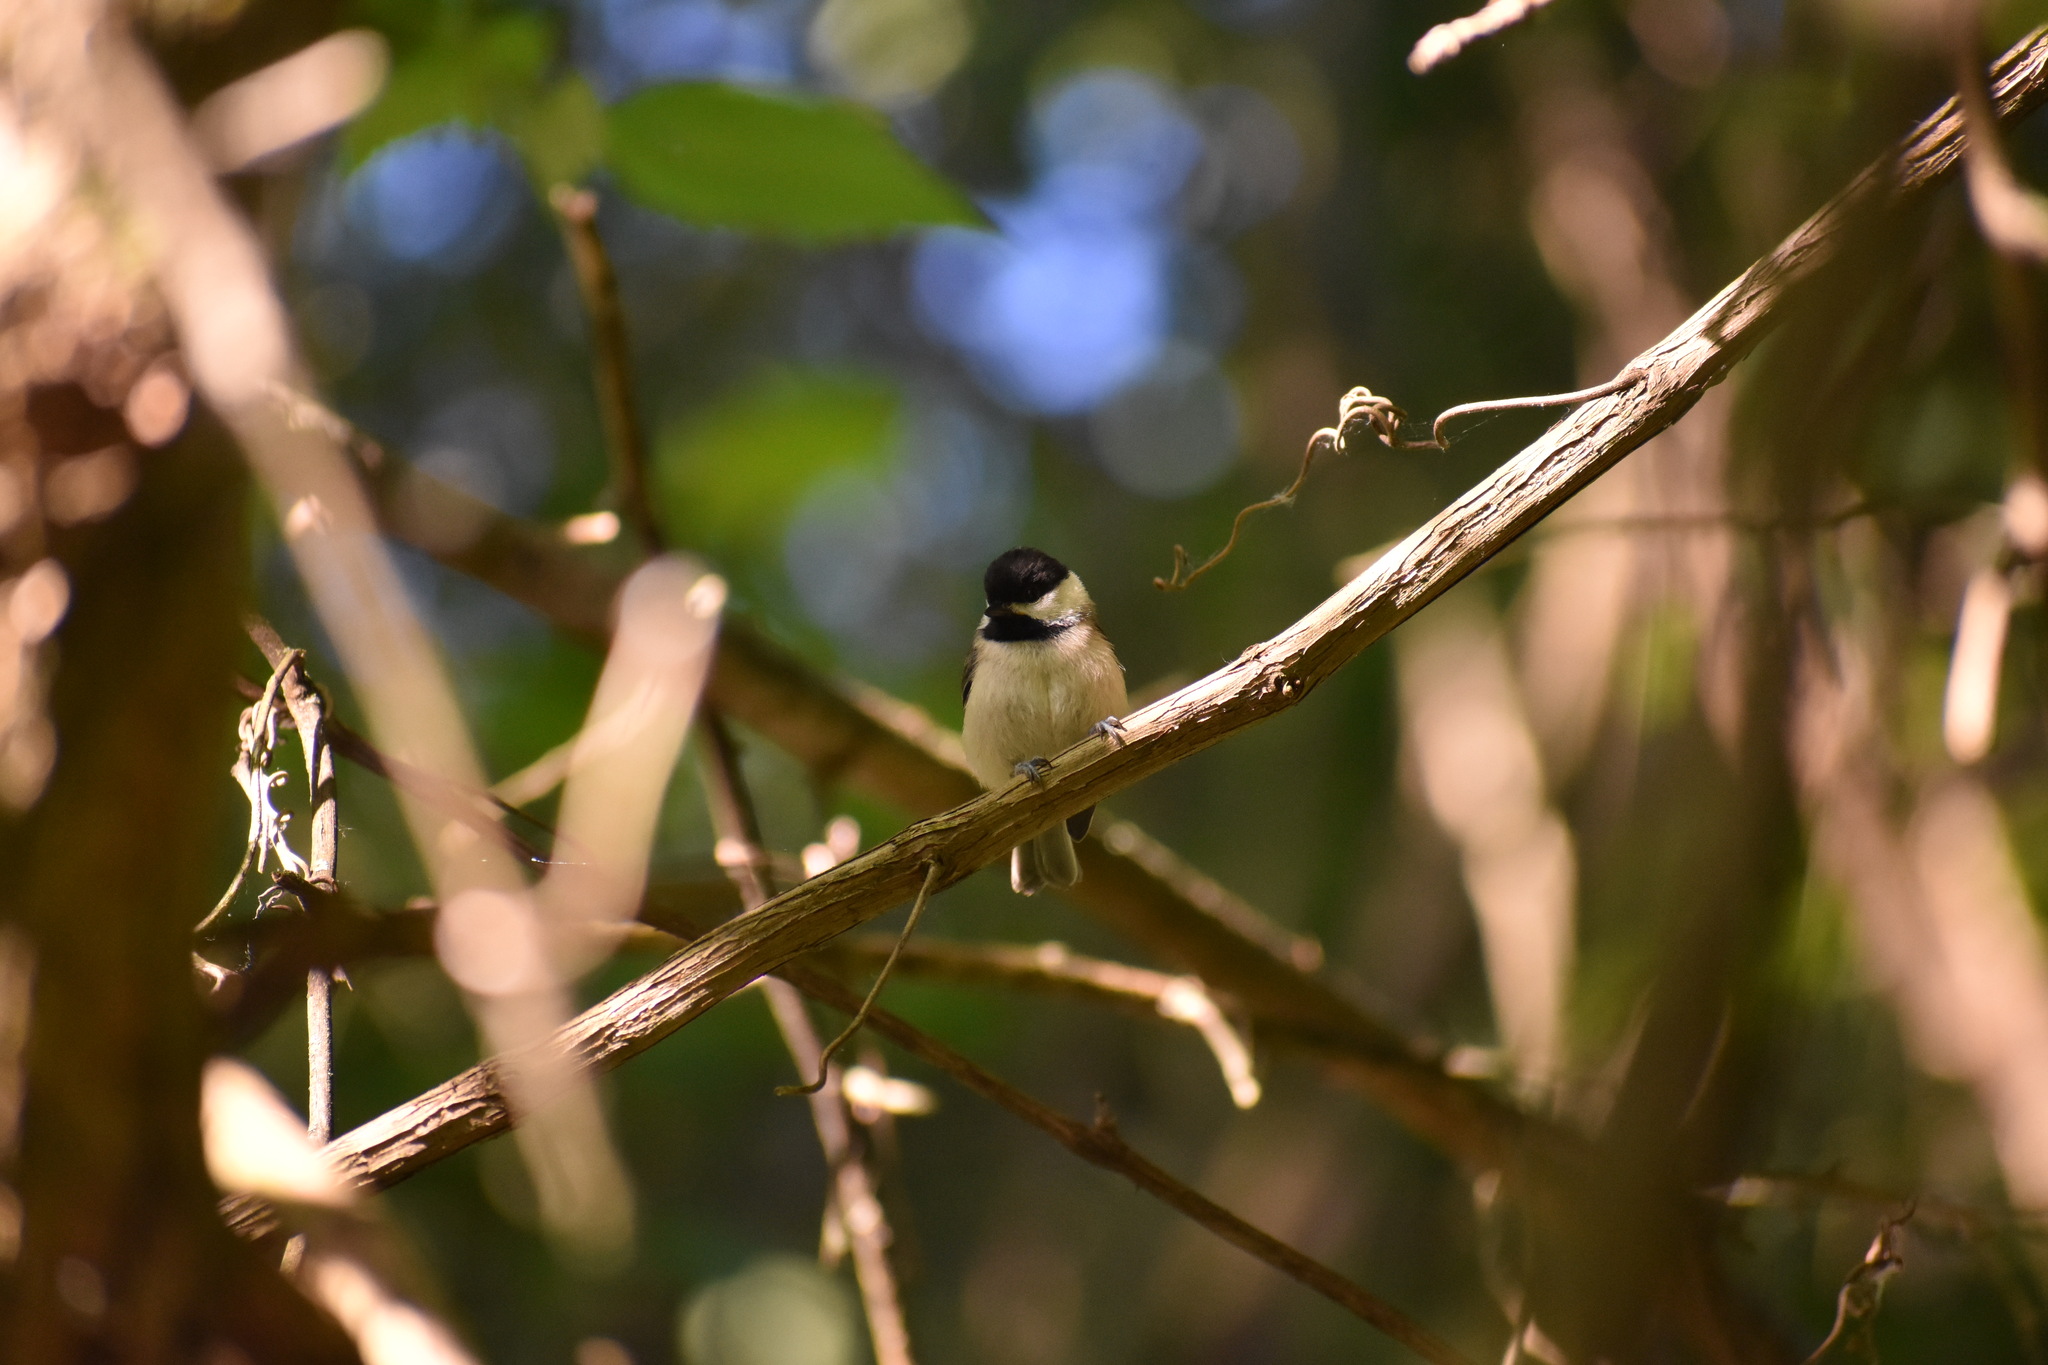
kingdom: Animalia
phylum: Chordata
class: Aves
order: Passeriformes
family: Paridae
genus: Poecile
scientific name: Poecile carolinensis
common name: Carolina chickadee
